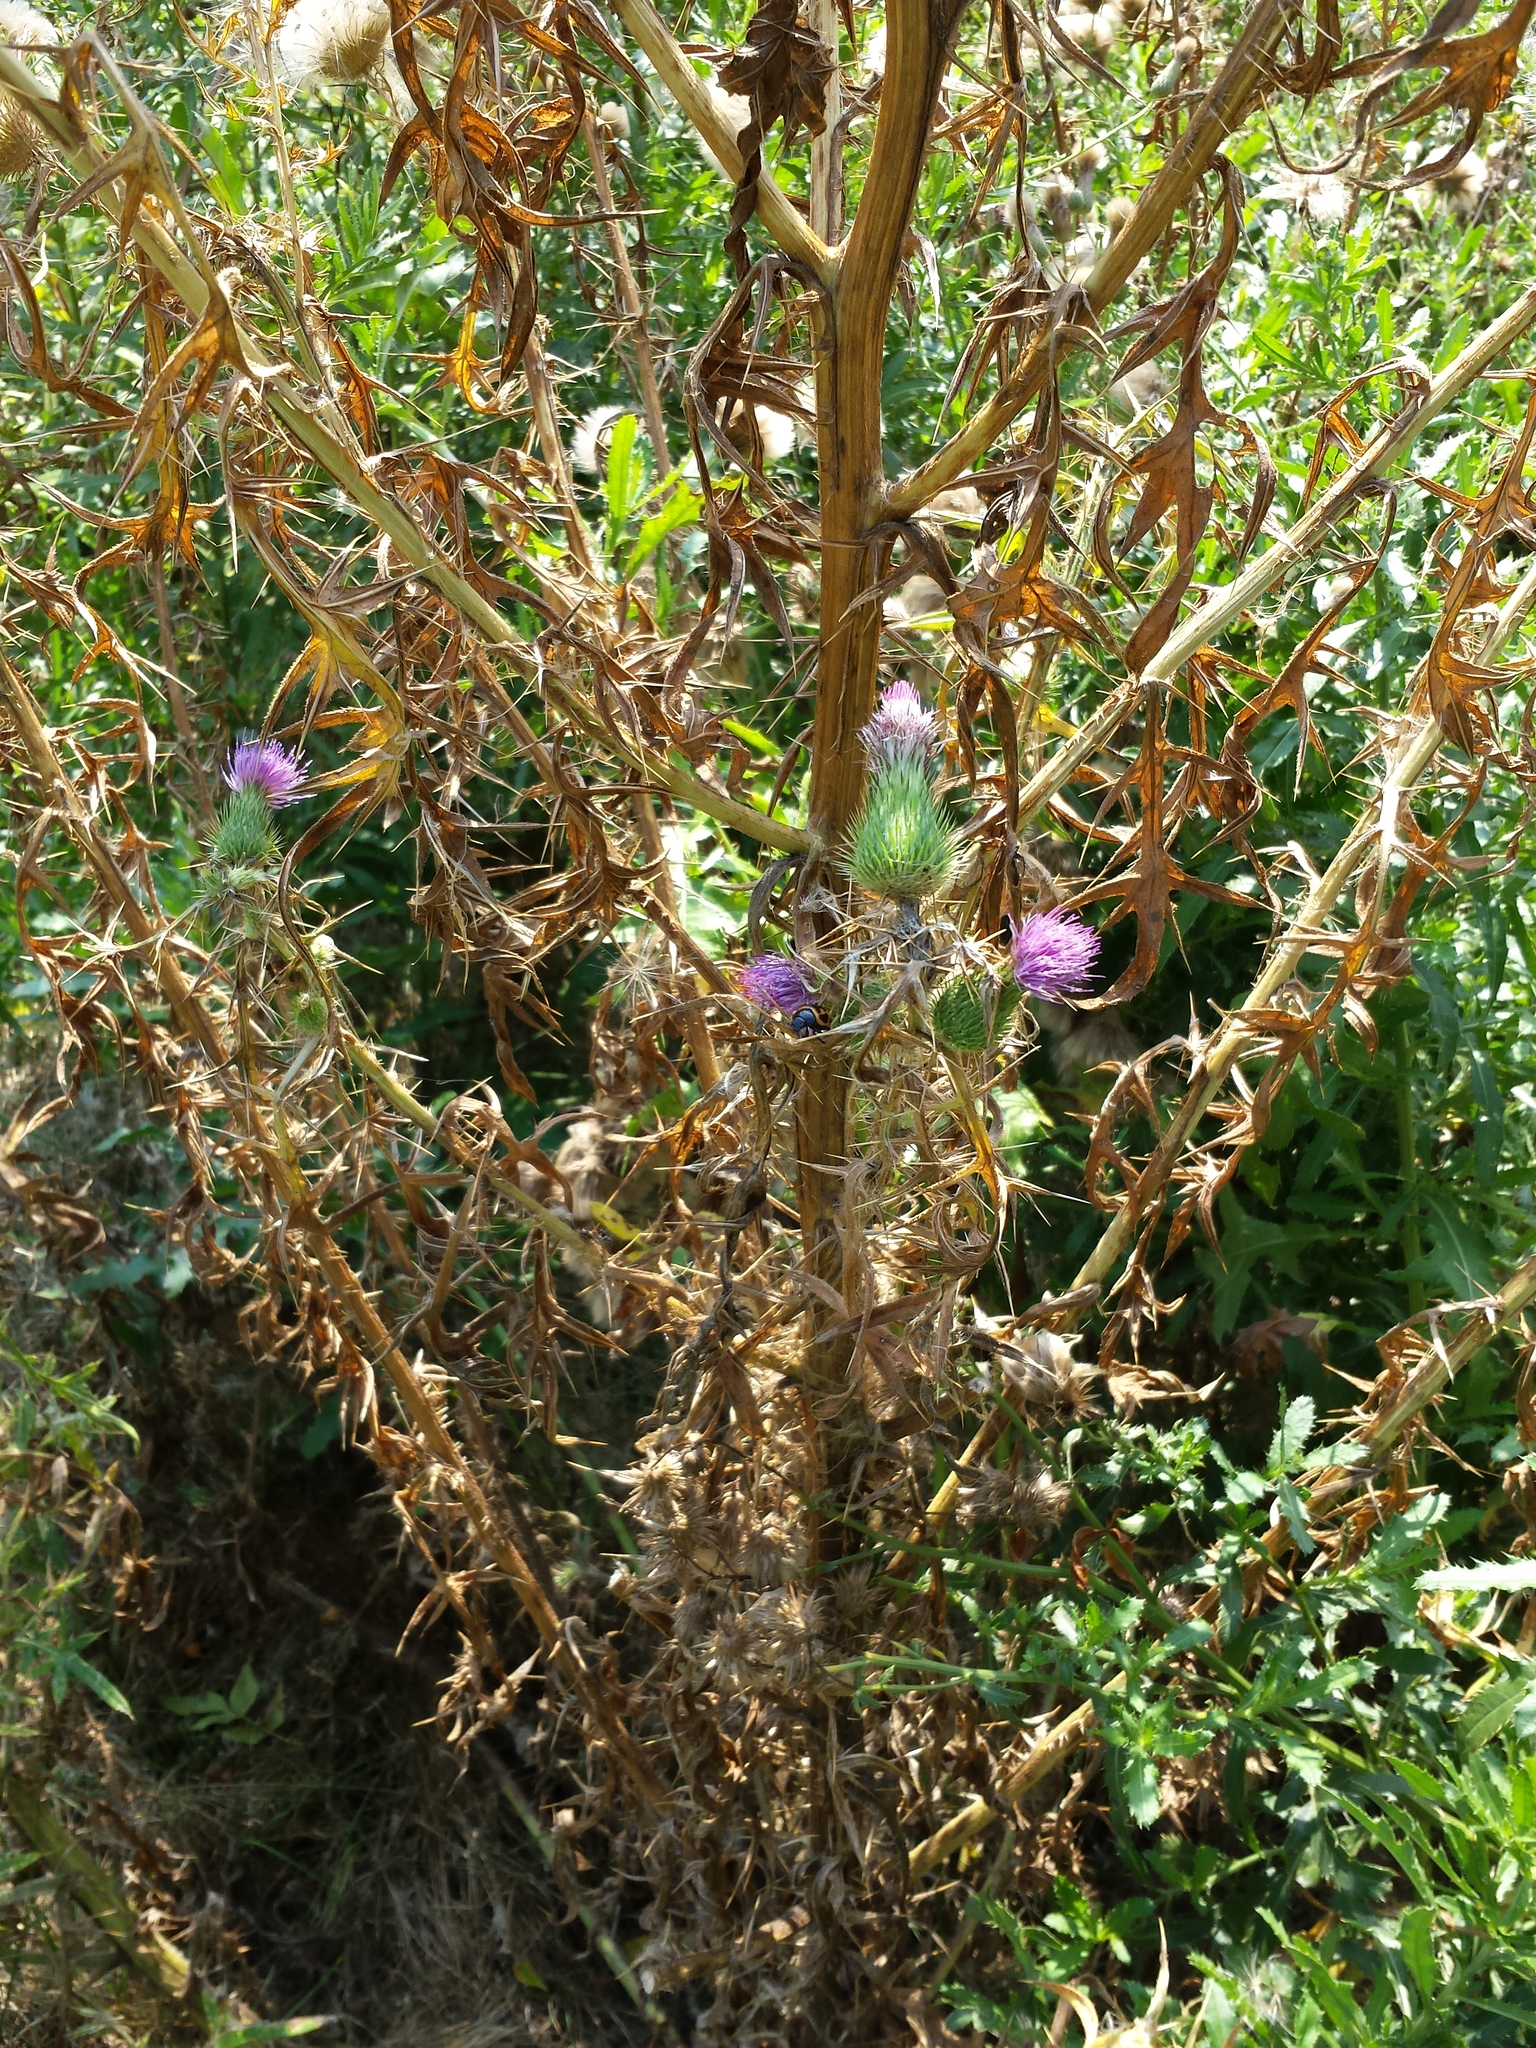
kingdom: Plantae
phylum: Tracheophyta
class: Magnoliopsida
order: Asterales
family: Asteraceae
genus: Cirsium
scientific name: Cirsium vulgare
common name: Bull thistle
